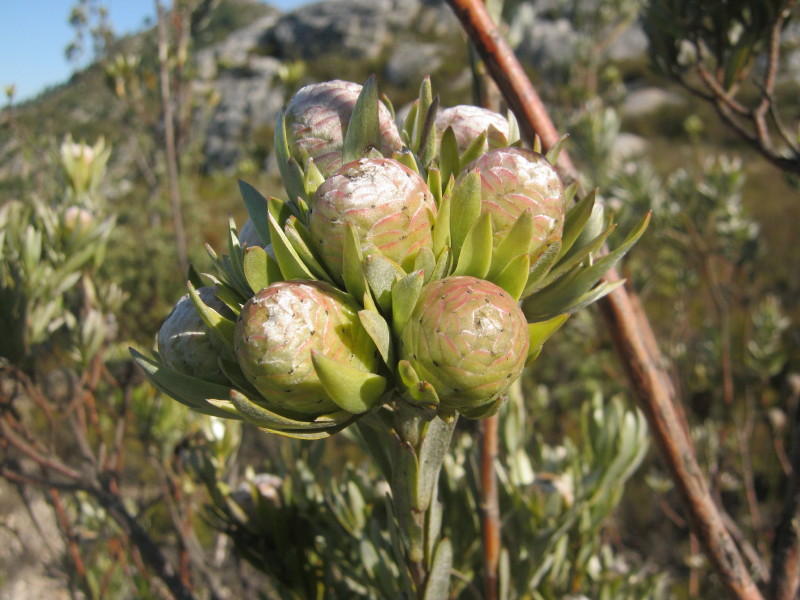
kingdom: Plantae
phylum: Tracheophyta
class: Magnoliopsida
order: Proteales
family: Proteaceae
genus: Leucadendron
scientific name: Leucadendron uliginosum
